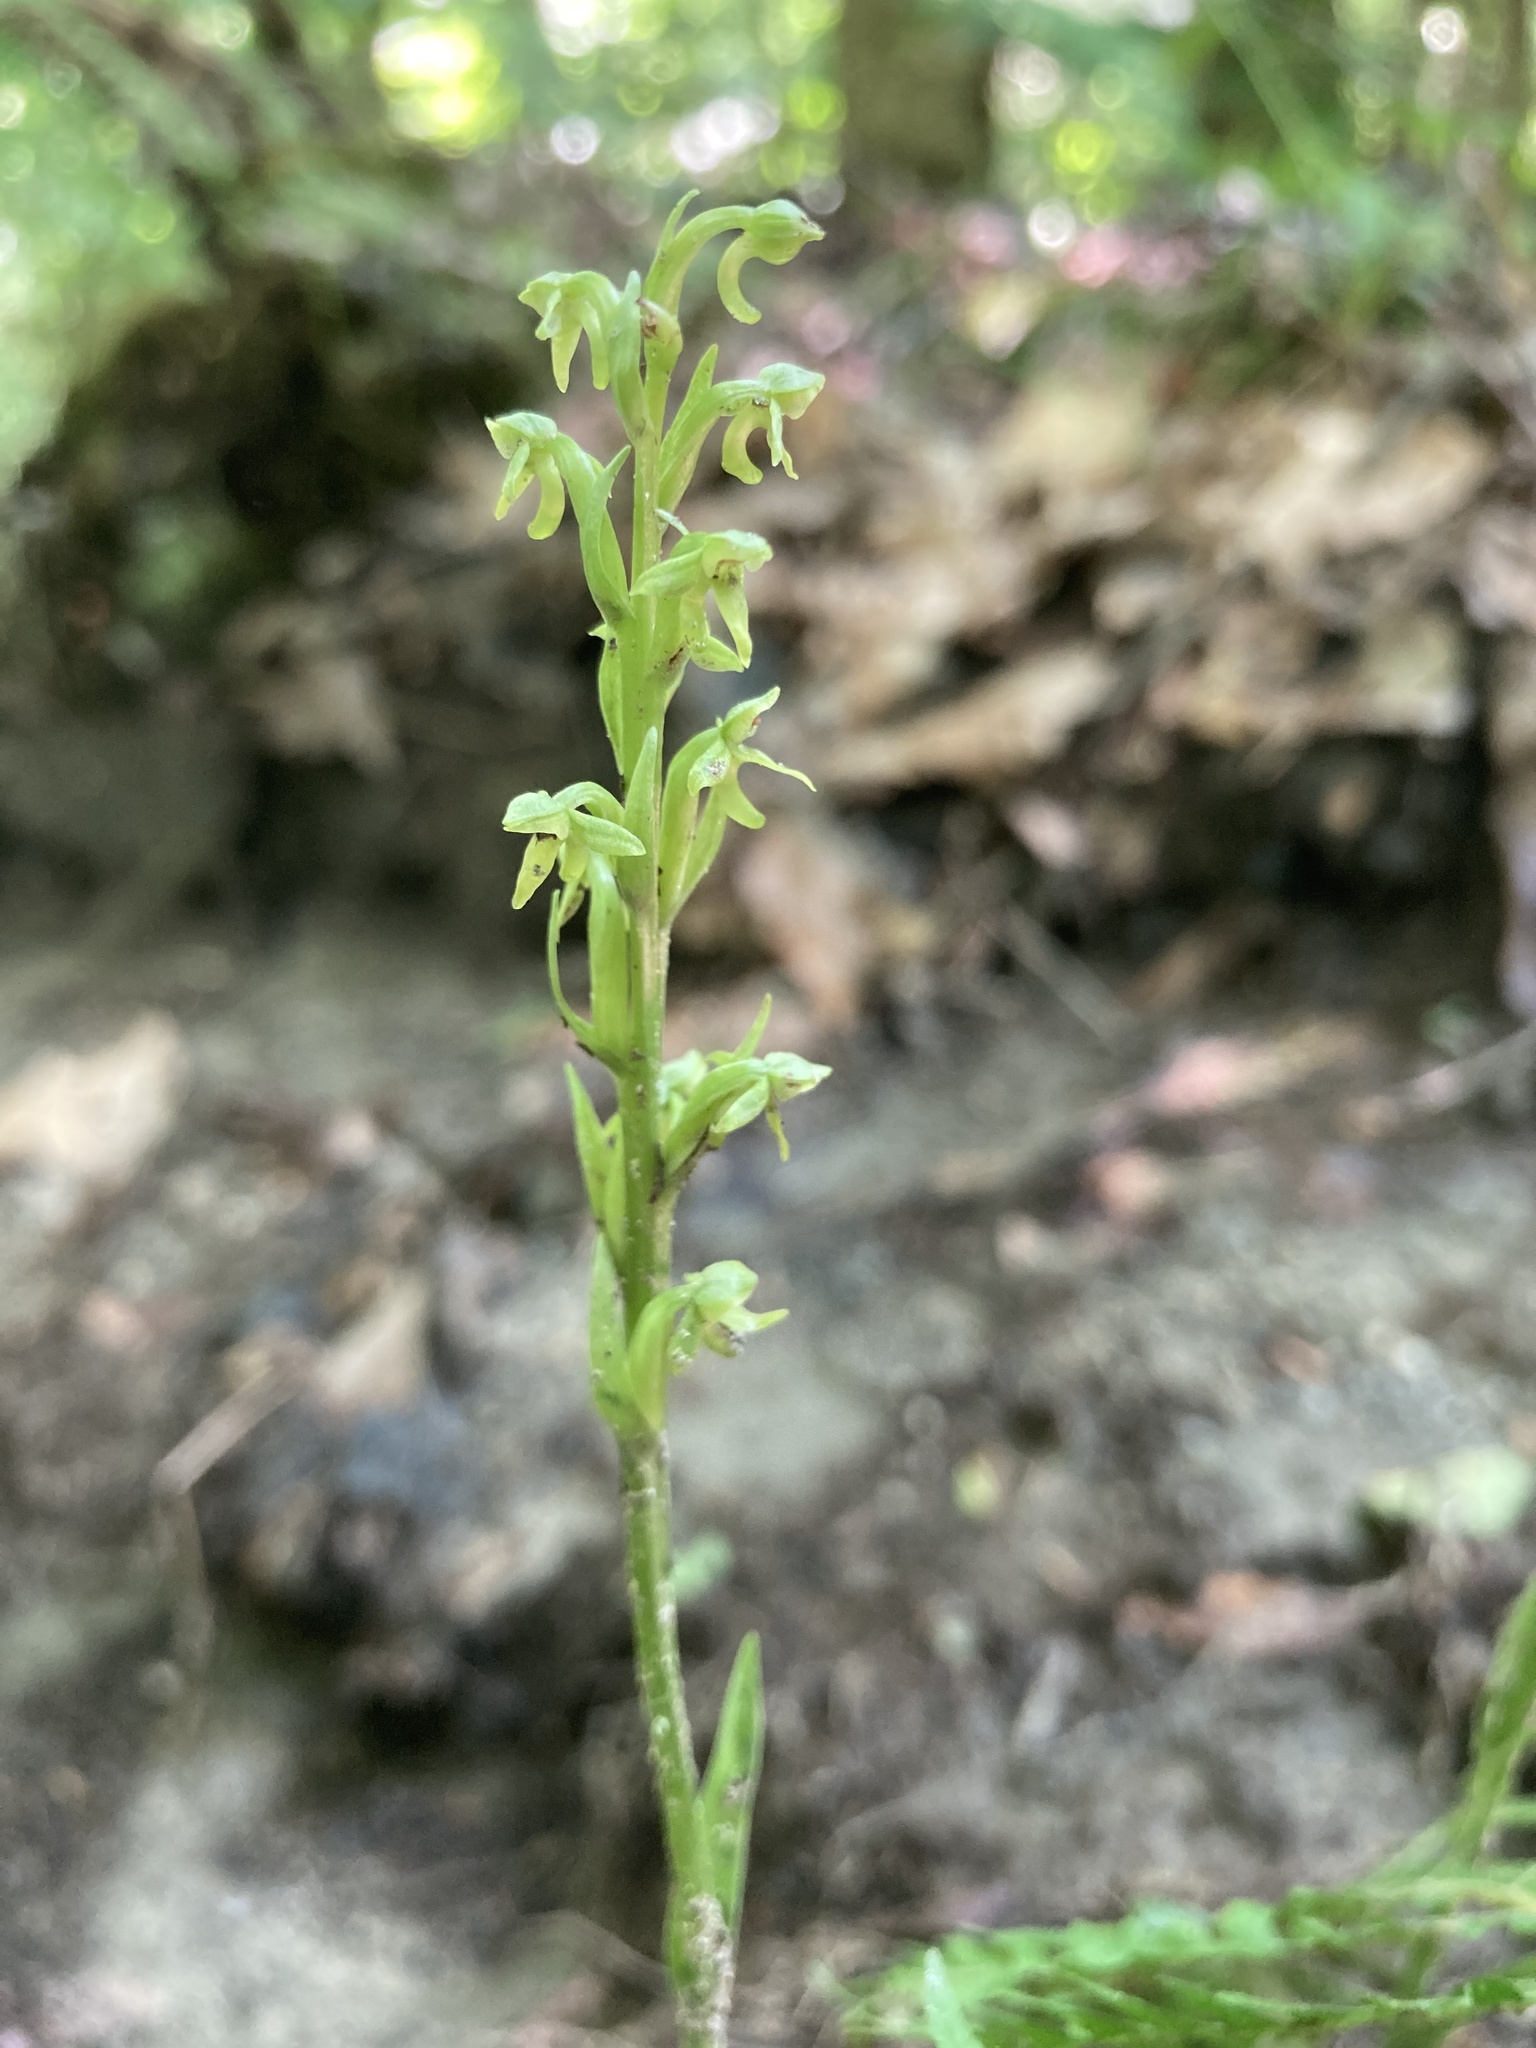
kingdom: Plantae
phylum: Tracheophyta
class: Liliopsida
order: Asparagales
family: Orchidaceae
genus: Platanthera
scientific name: Platanthera aquilonis
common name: Northern green orchid
